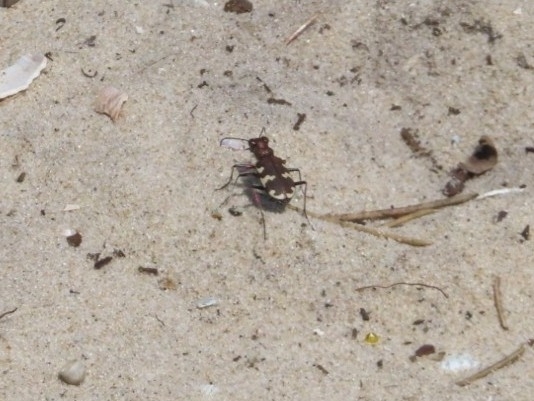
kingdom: Animalia
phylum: Arthropoda
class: Insecta
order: Coleoptera
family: Carabidae
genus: Cicindela
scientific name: Cicindela hybrida
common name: Northern dune tiger beetle
